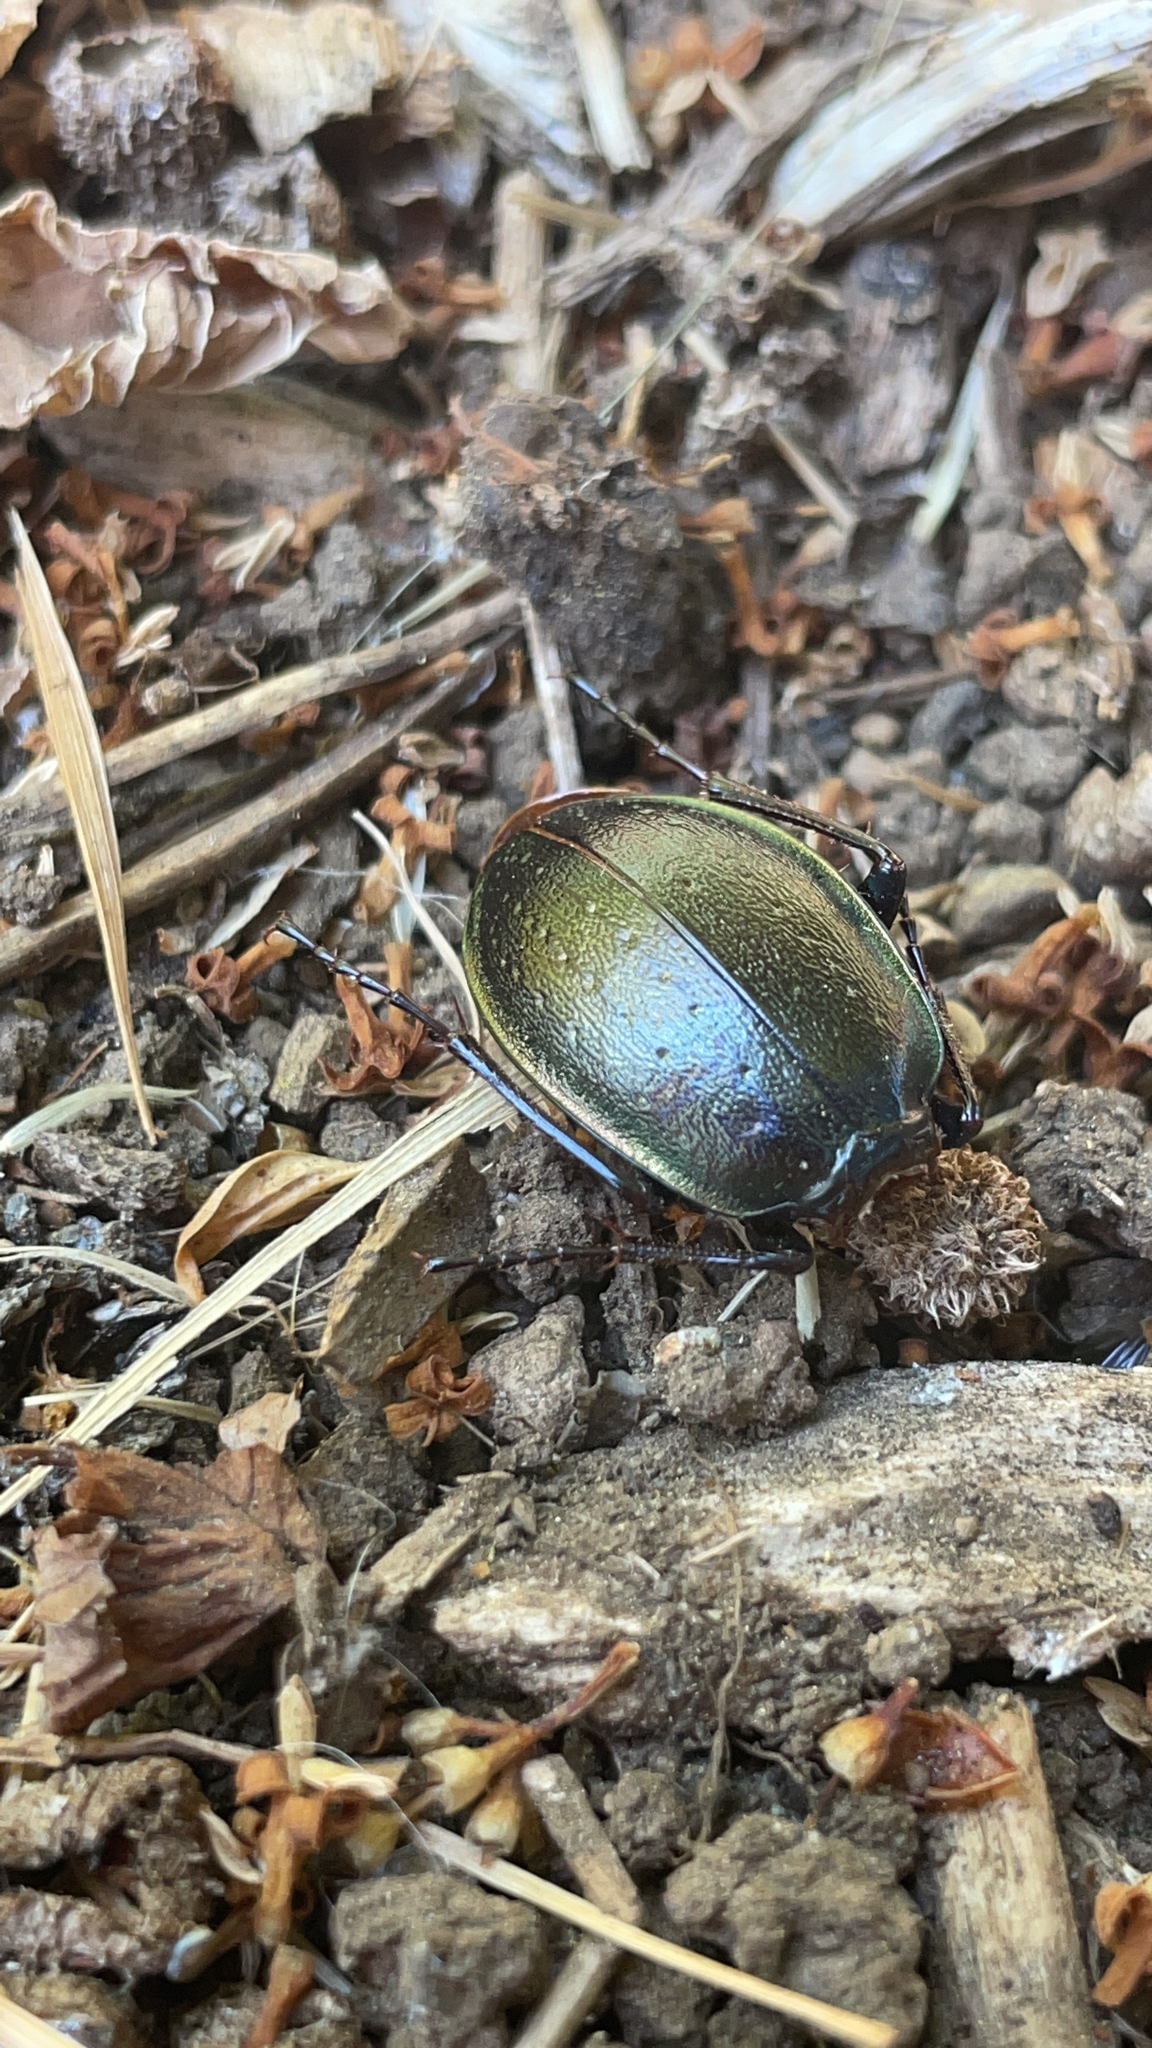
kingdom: Animalia
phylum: Arthropoda
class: Insecta
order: Coleoptera
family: Carabidae
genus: Carabus
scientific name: Carabus nemoralis
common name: European ground beetle
